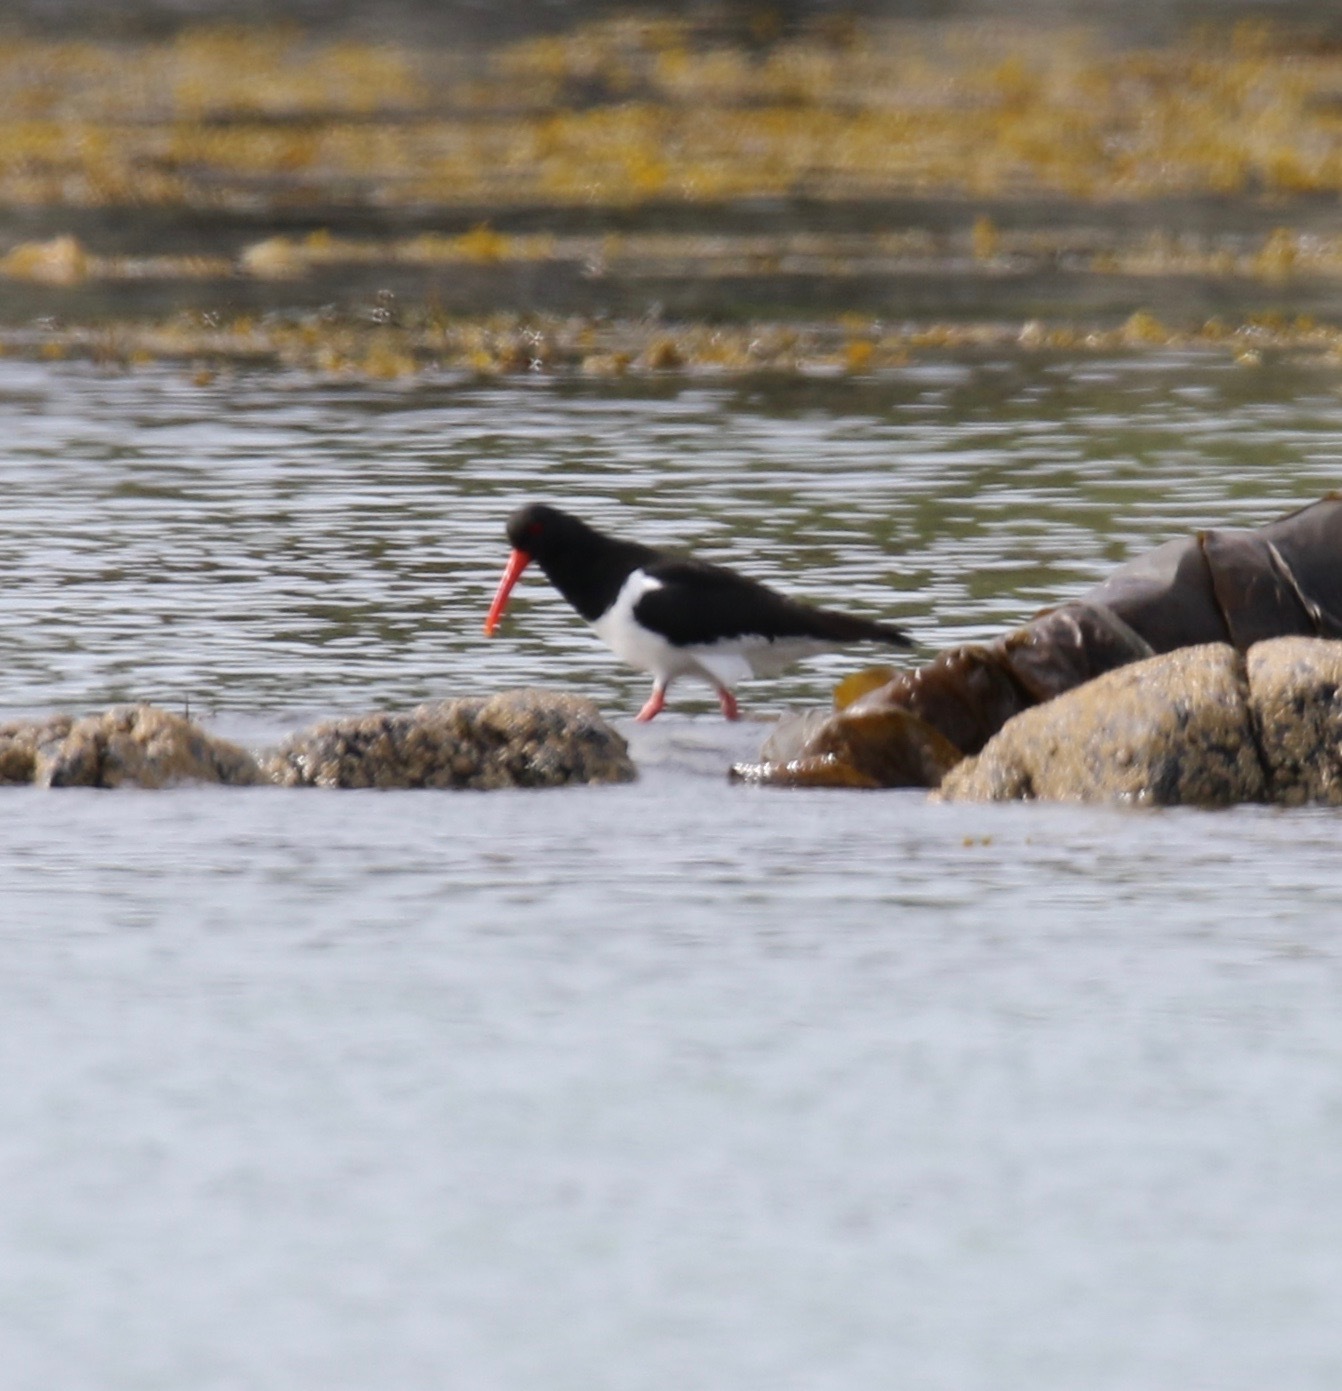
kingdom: Animalia
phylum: Chordata
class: Aves
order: Charadriiformes
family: Haematopodidae
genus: Haematopus
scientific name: Haematopus ostralegus
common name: Eurasian oystercatcher
